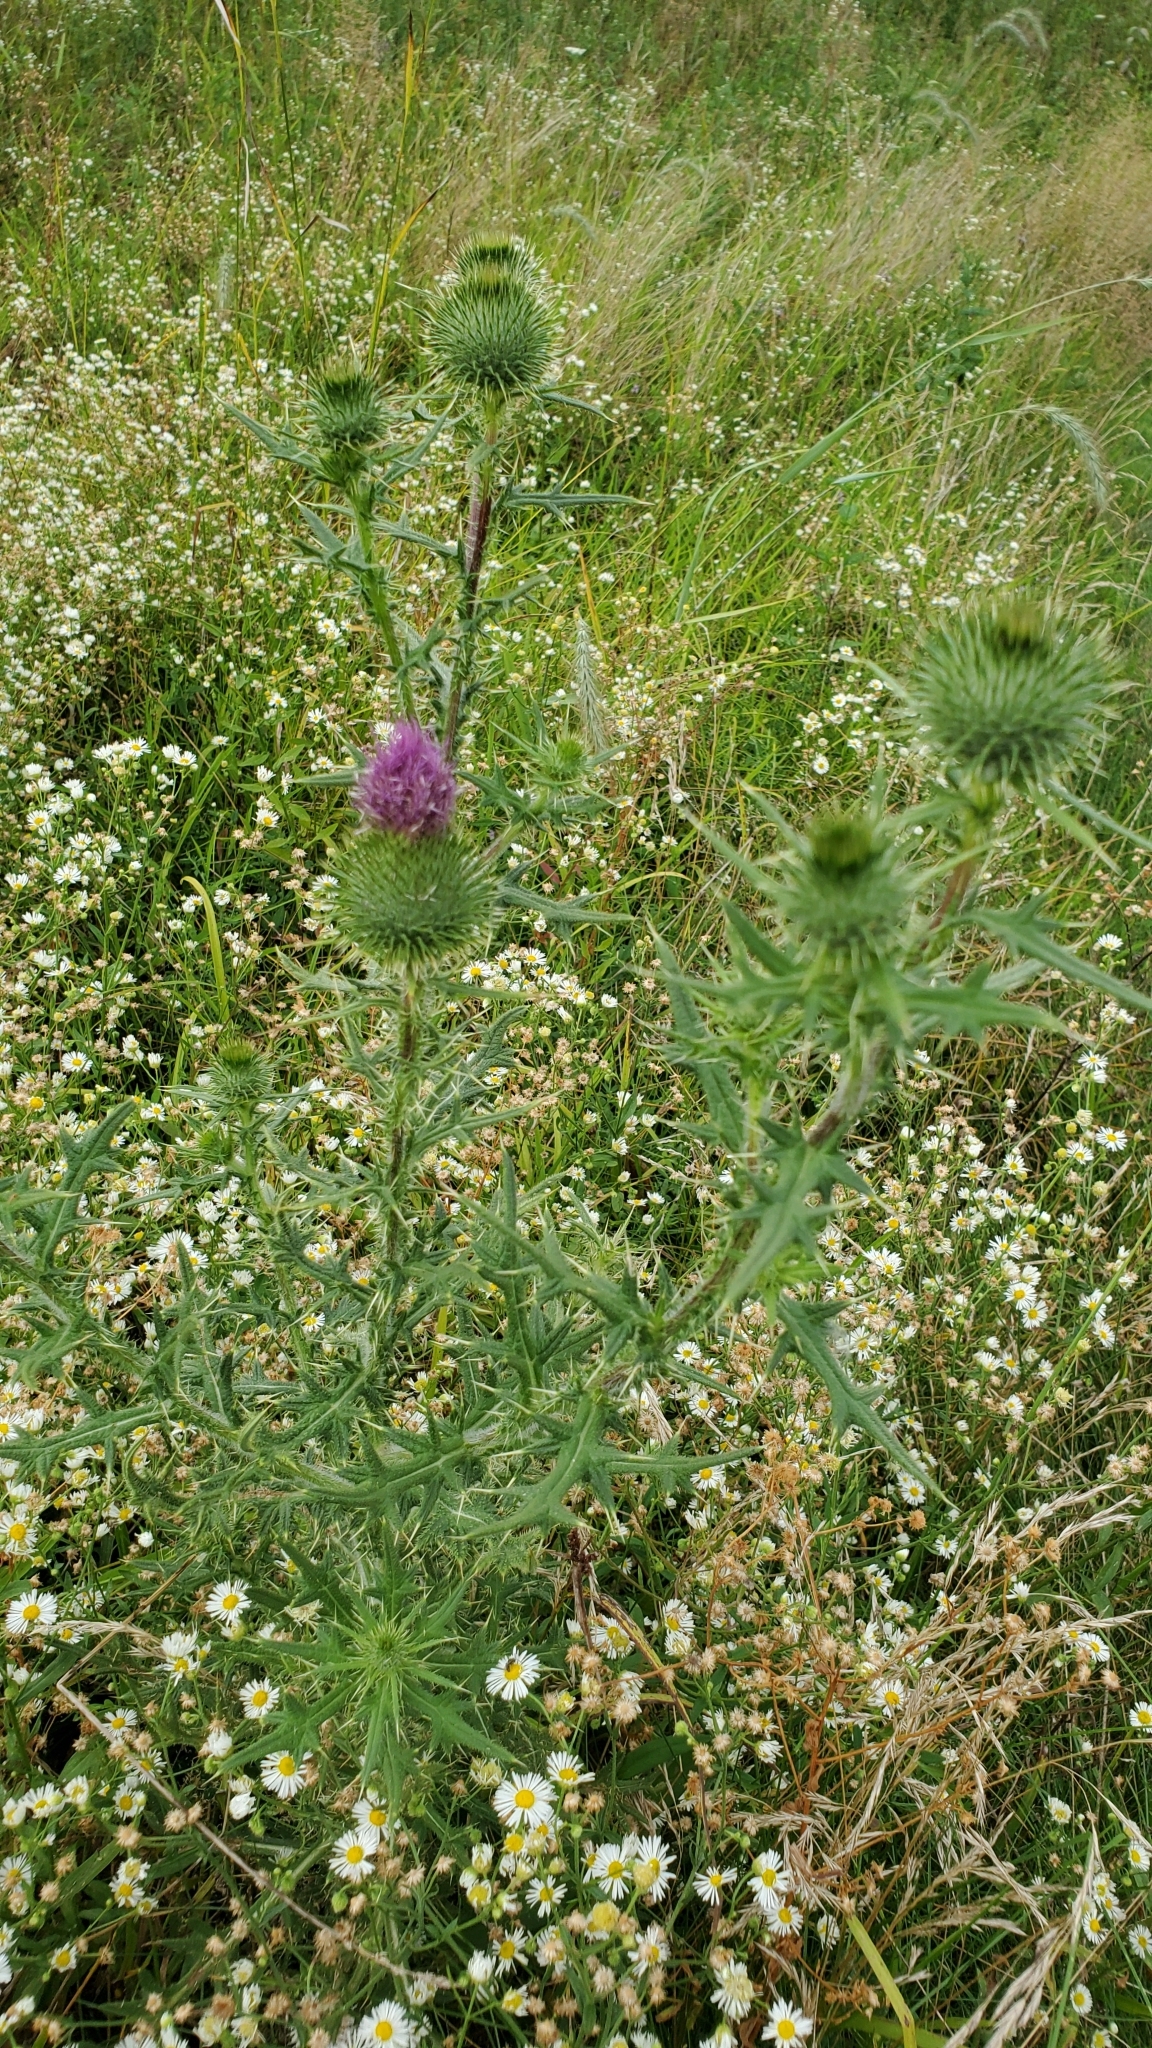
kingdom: Plantae
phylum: Tracheophyta
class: Magnoliopsida
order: Asterales
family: Asteraceae
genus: Cirsium
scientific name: Cirsium vulgare
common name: Bull thistle
